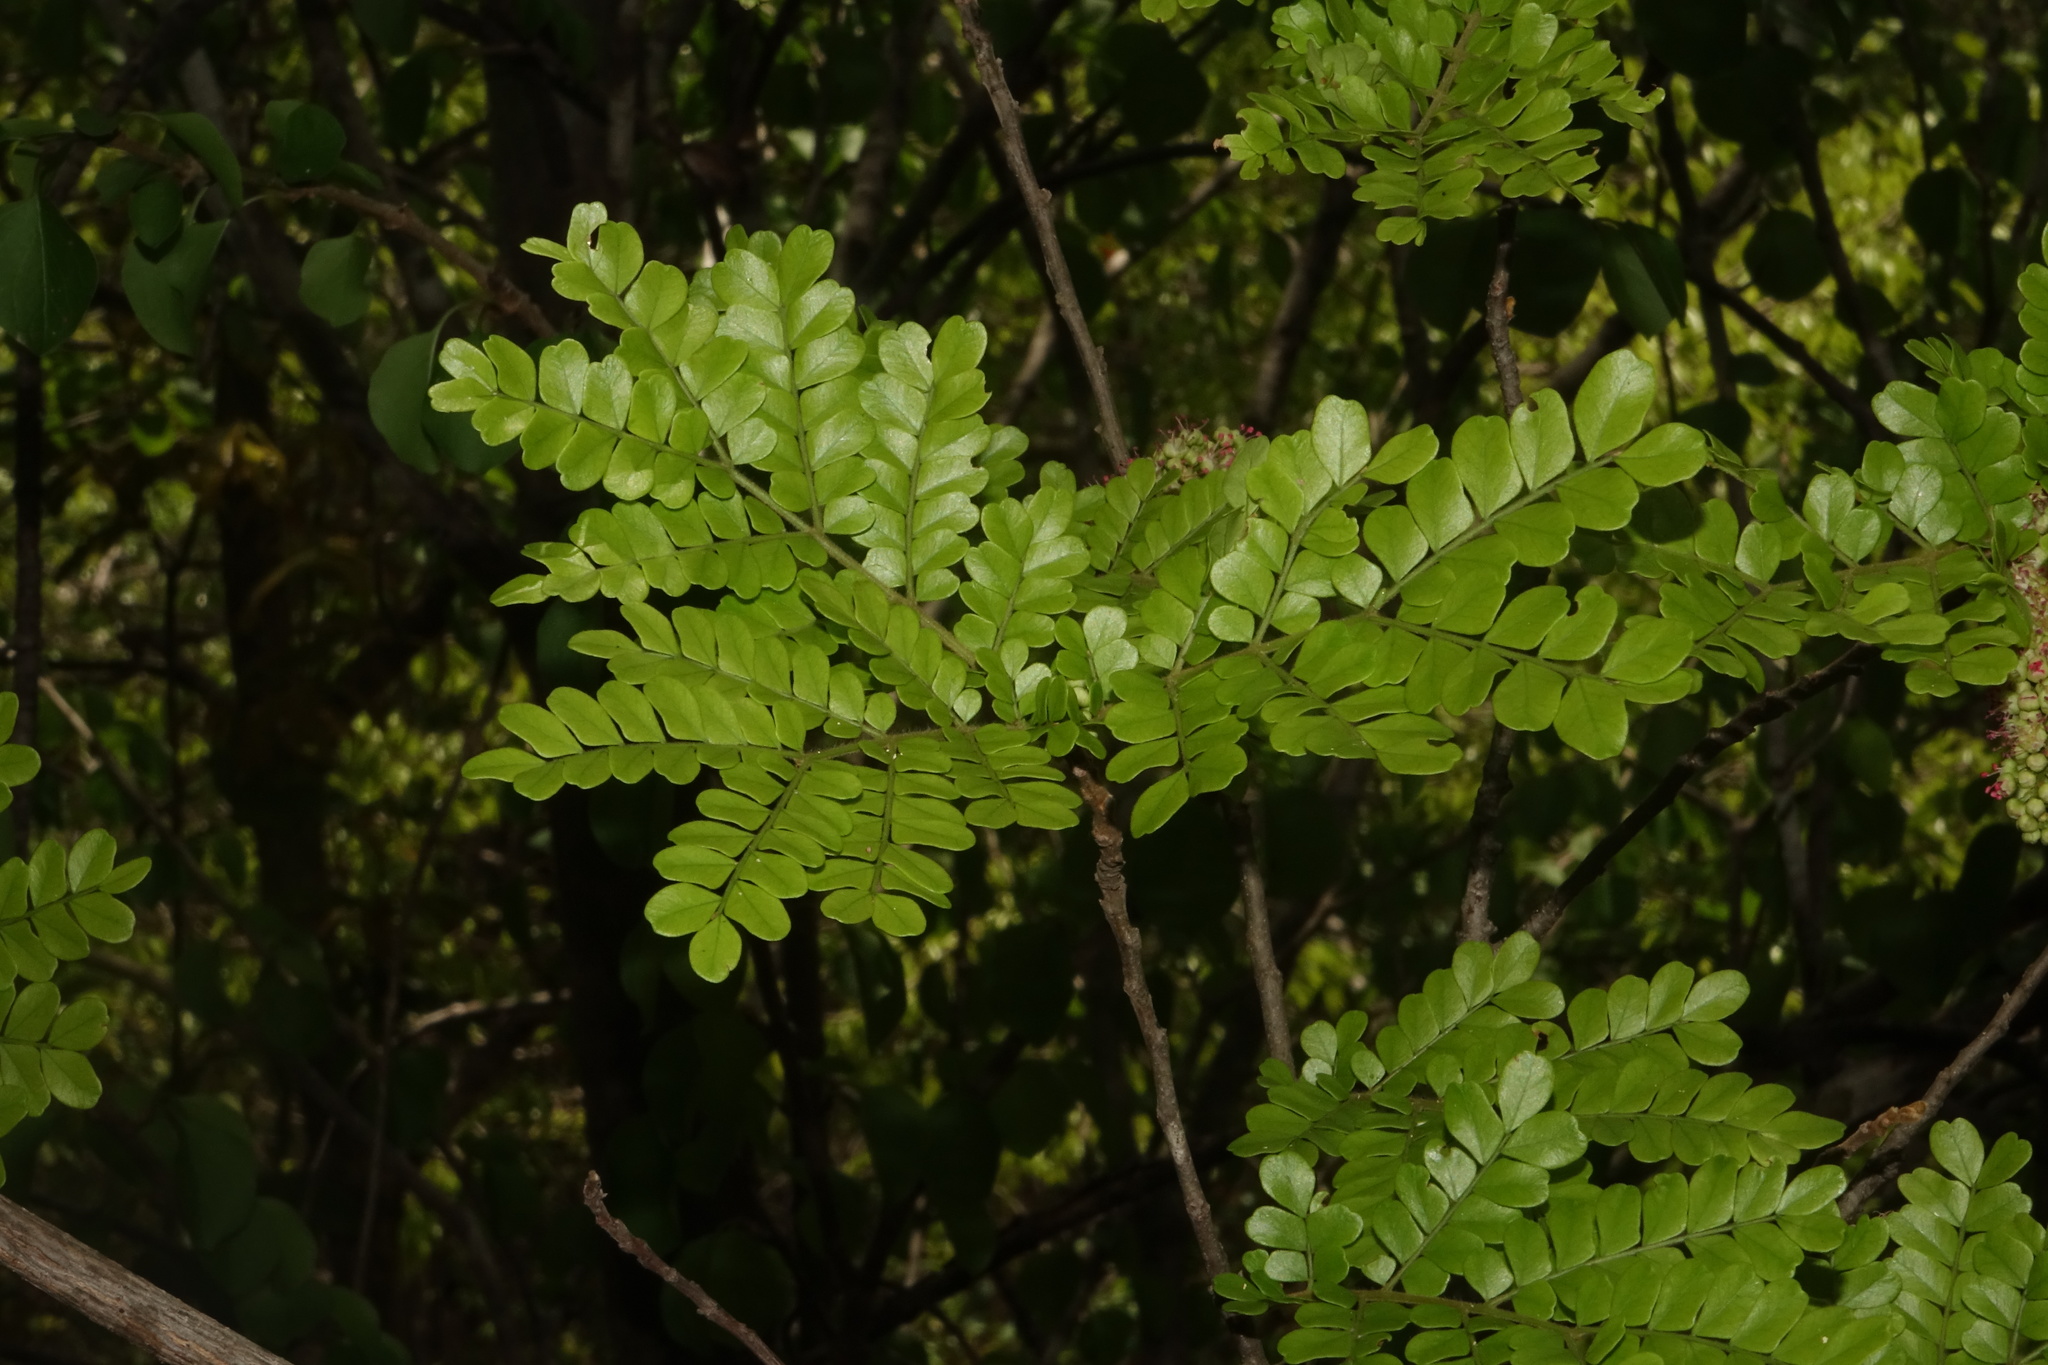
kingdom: Plantae
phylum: Tracheophyta
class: Magnoliopsida
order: Sapindales
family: Sapindaceae
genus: Macphersonia
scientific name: Macphersonia gracilis
